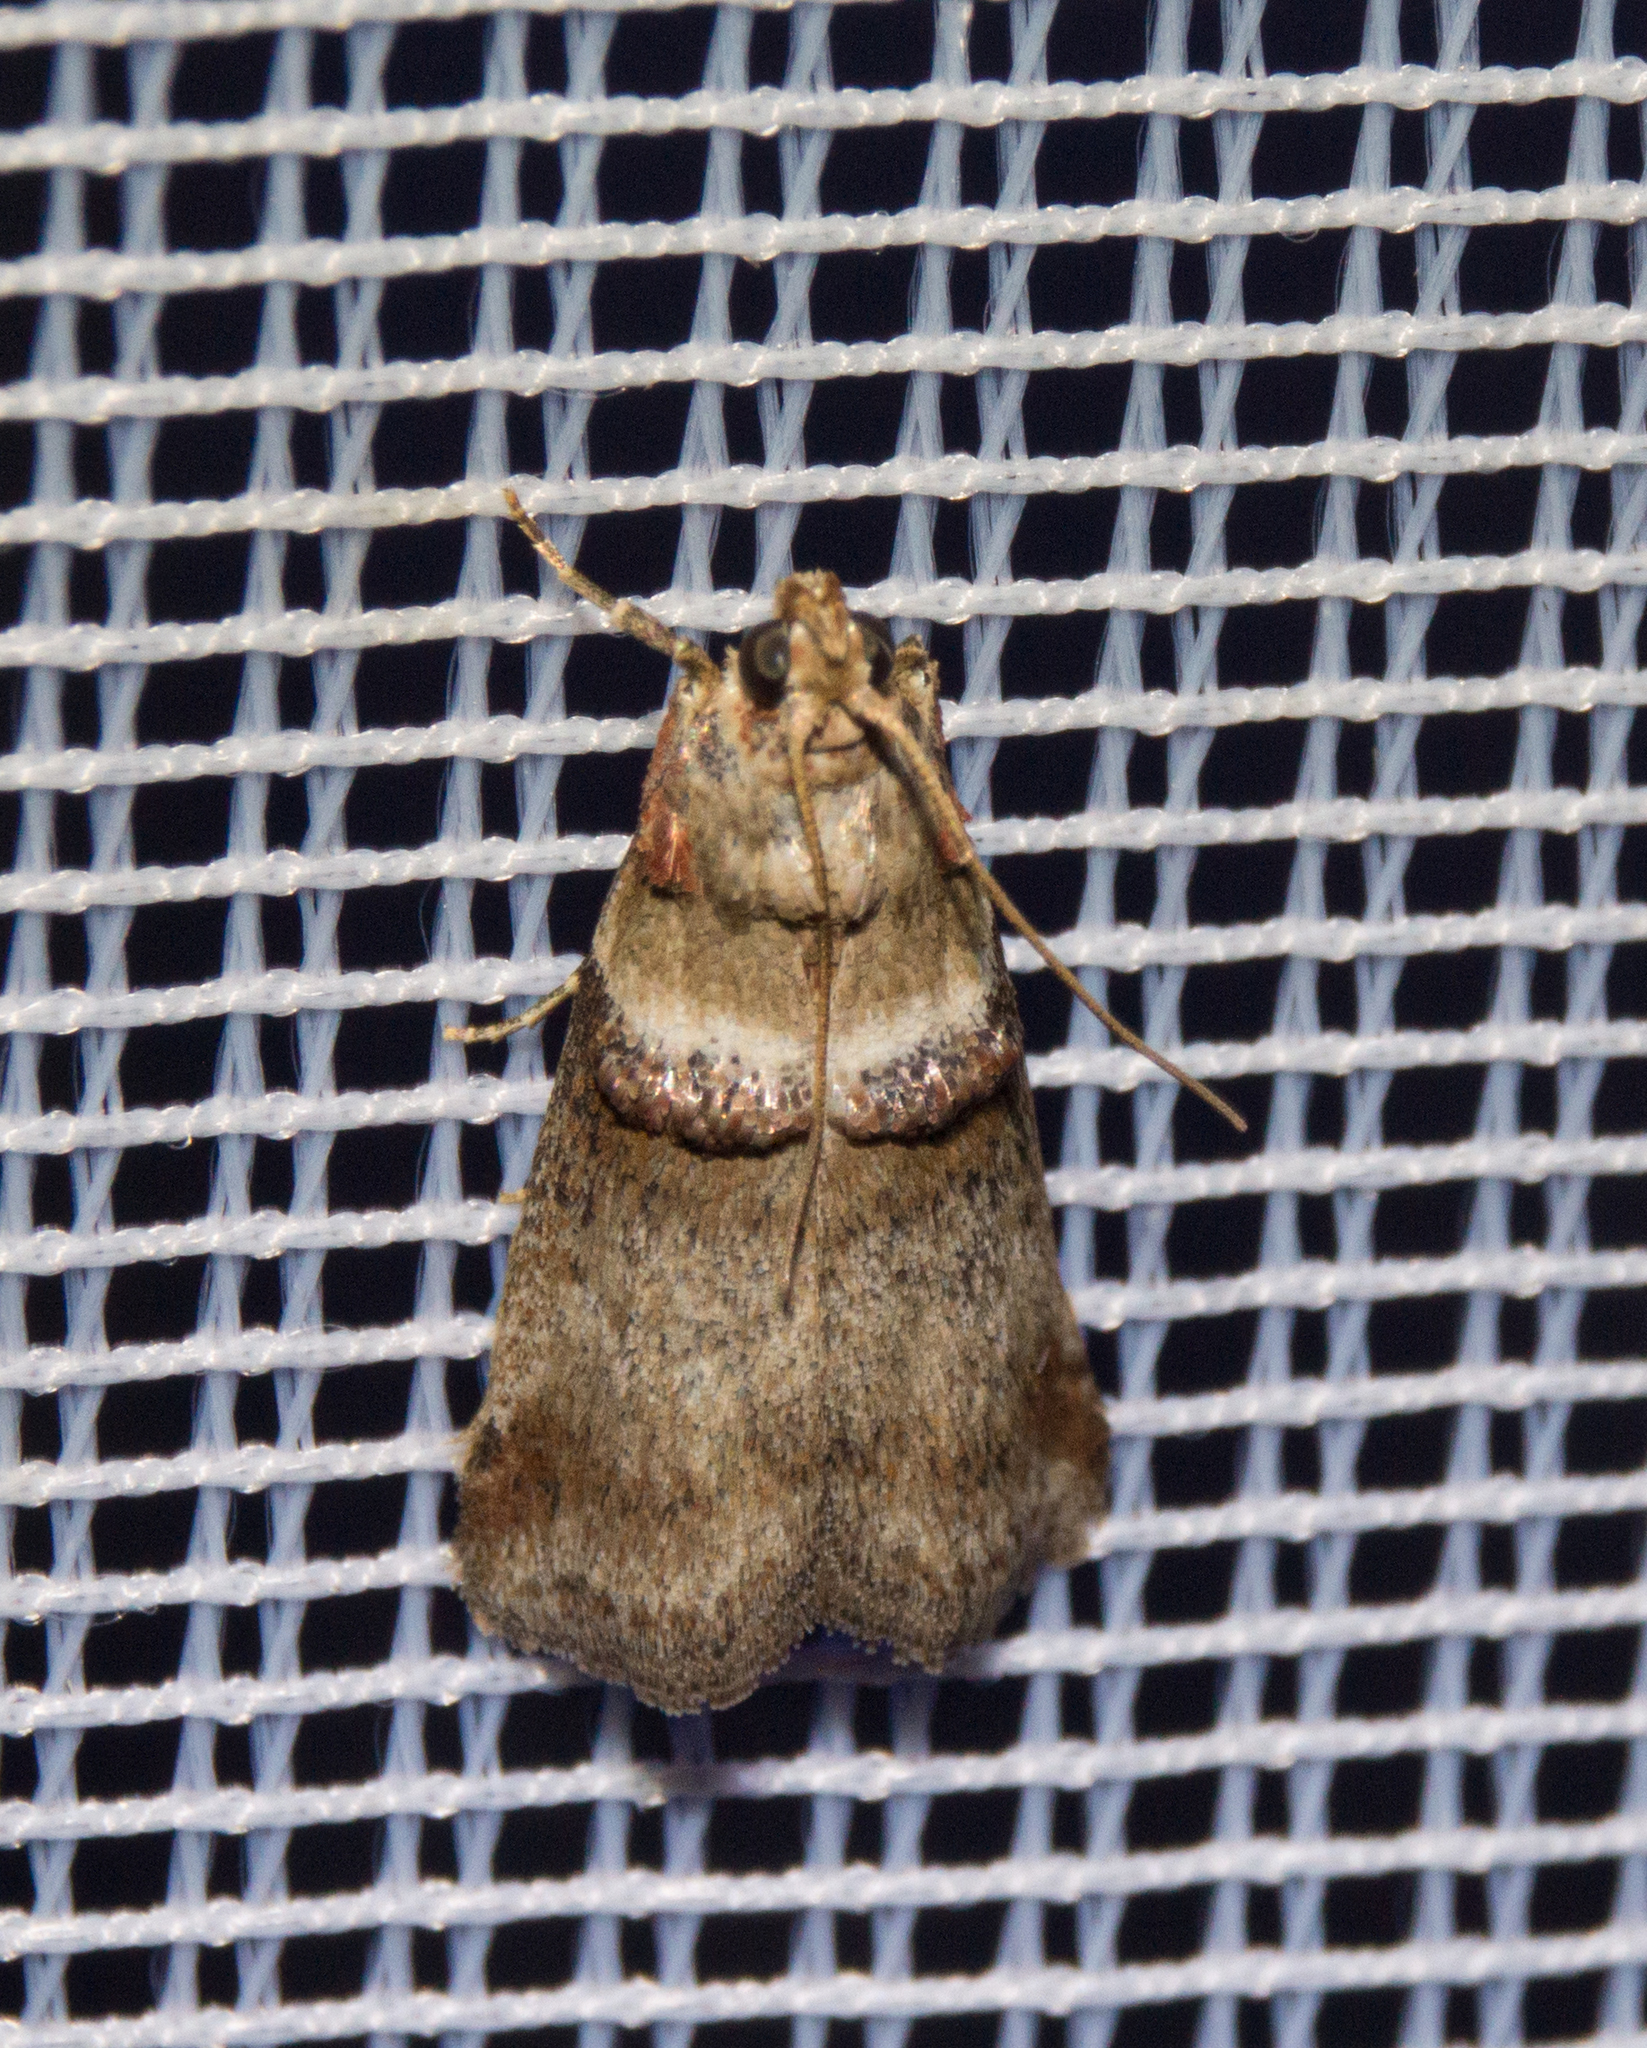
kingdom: Animalia
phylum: Arthropoda
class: Insecta
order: Lepidoptera
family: Pyralidae
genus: Acrobasis
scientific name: Acrobasis tumidana
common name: Scarce oak knot-horn
